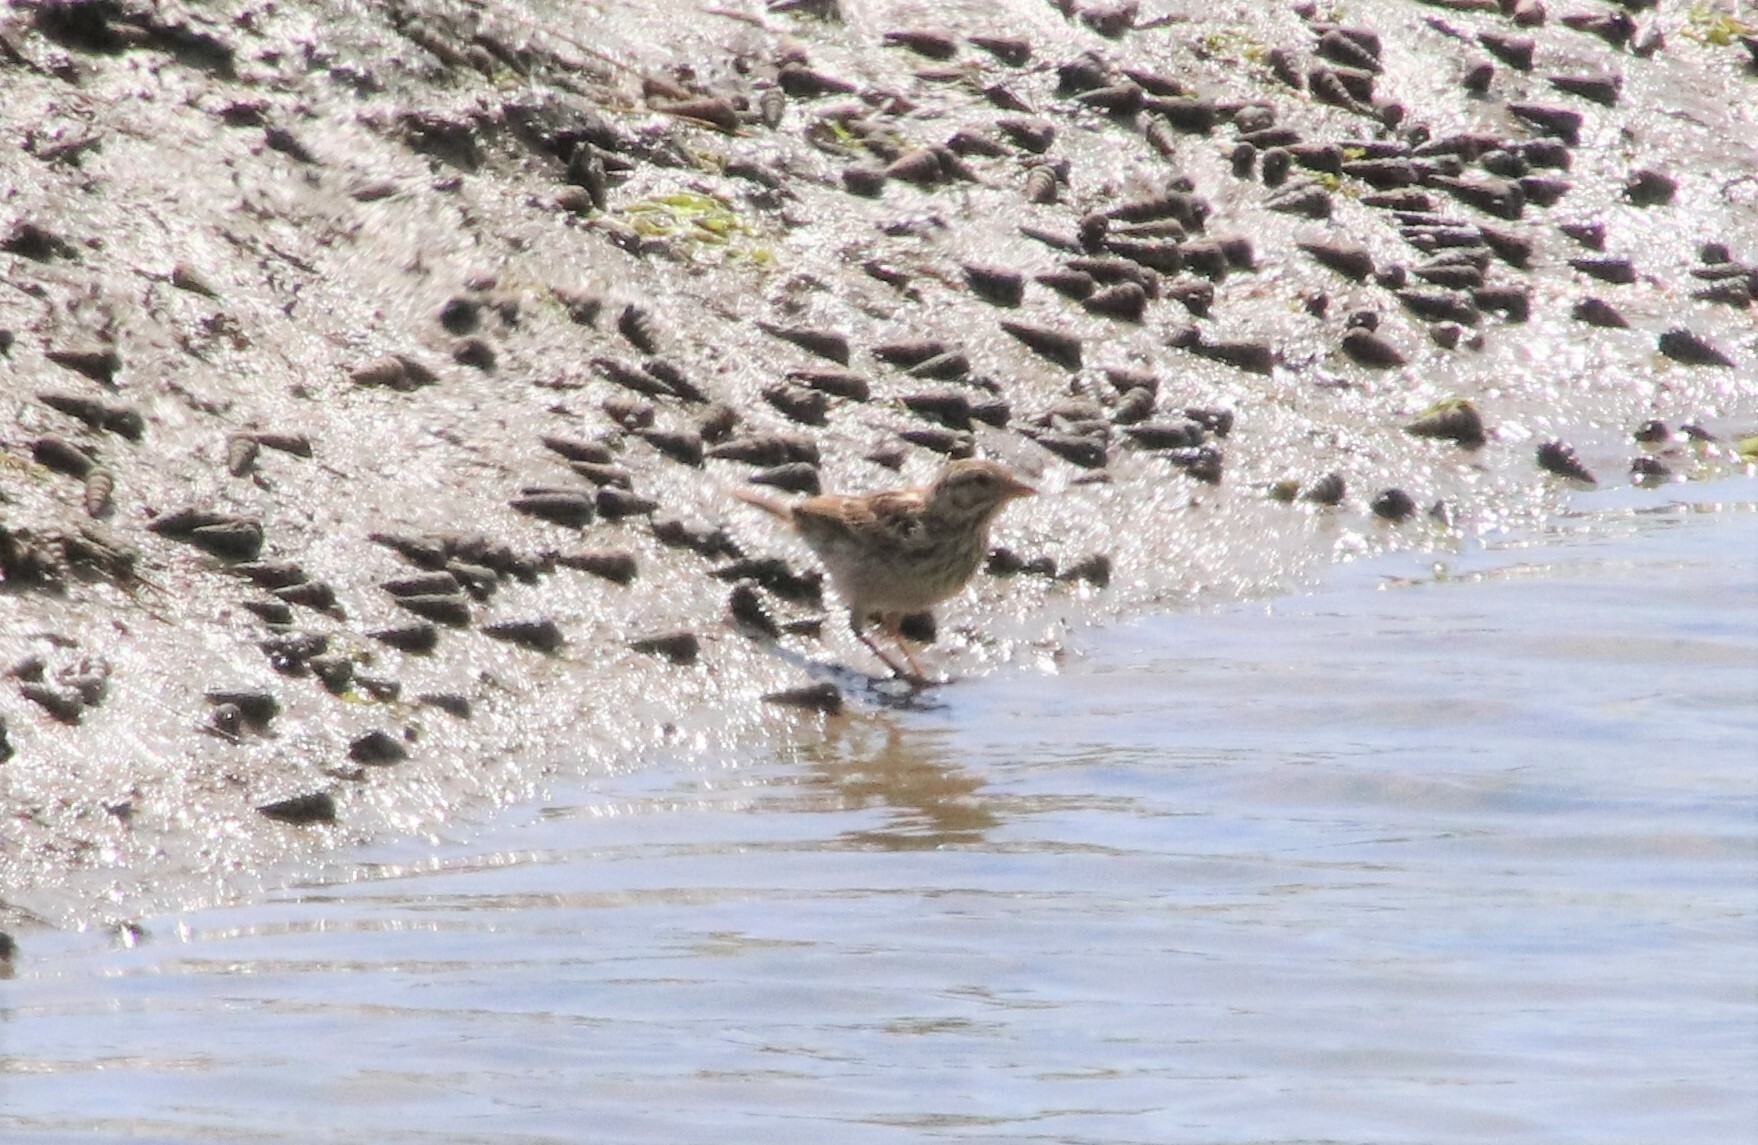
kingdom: Animalia
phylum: Chordata
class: Aves
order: Passeriformes
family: Passerellidae
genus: Passerculus
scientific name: Passerculus sandwichensis
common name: Savannah sparrow
